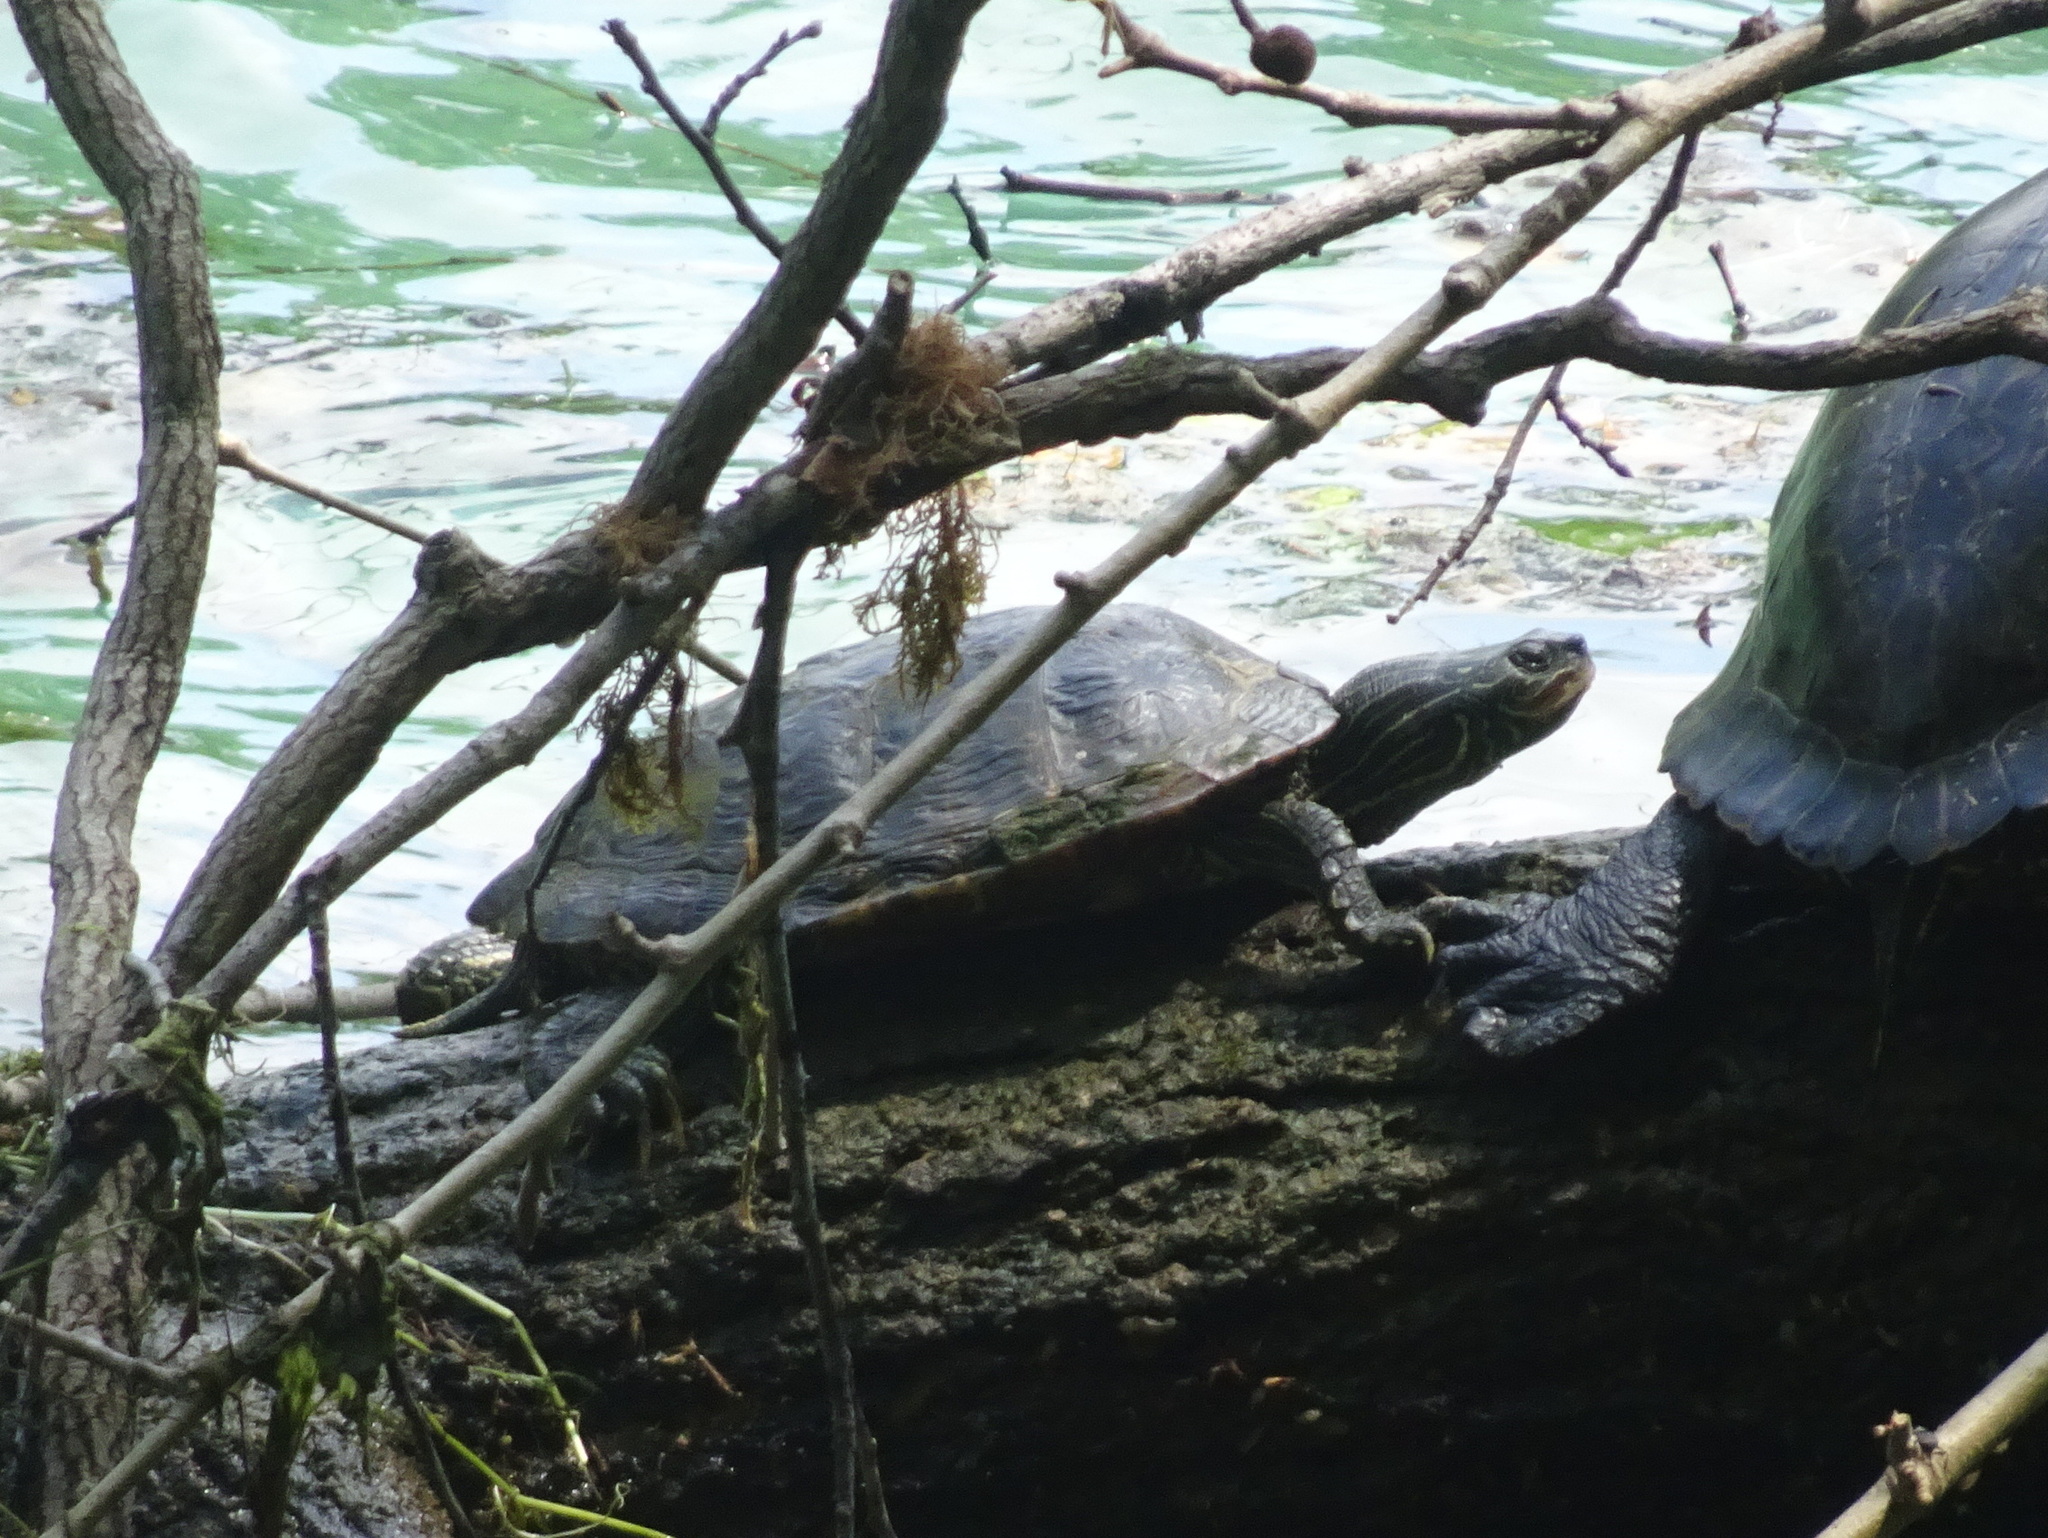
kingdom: Animalia
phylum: Chordata
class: Testudines
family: Emydidae
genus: Graptemys
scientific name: Graptemys geographica
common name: Common map turtle
